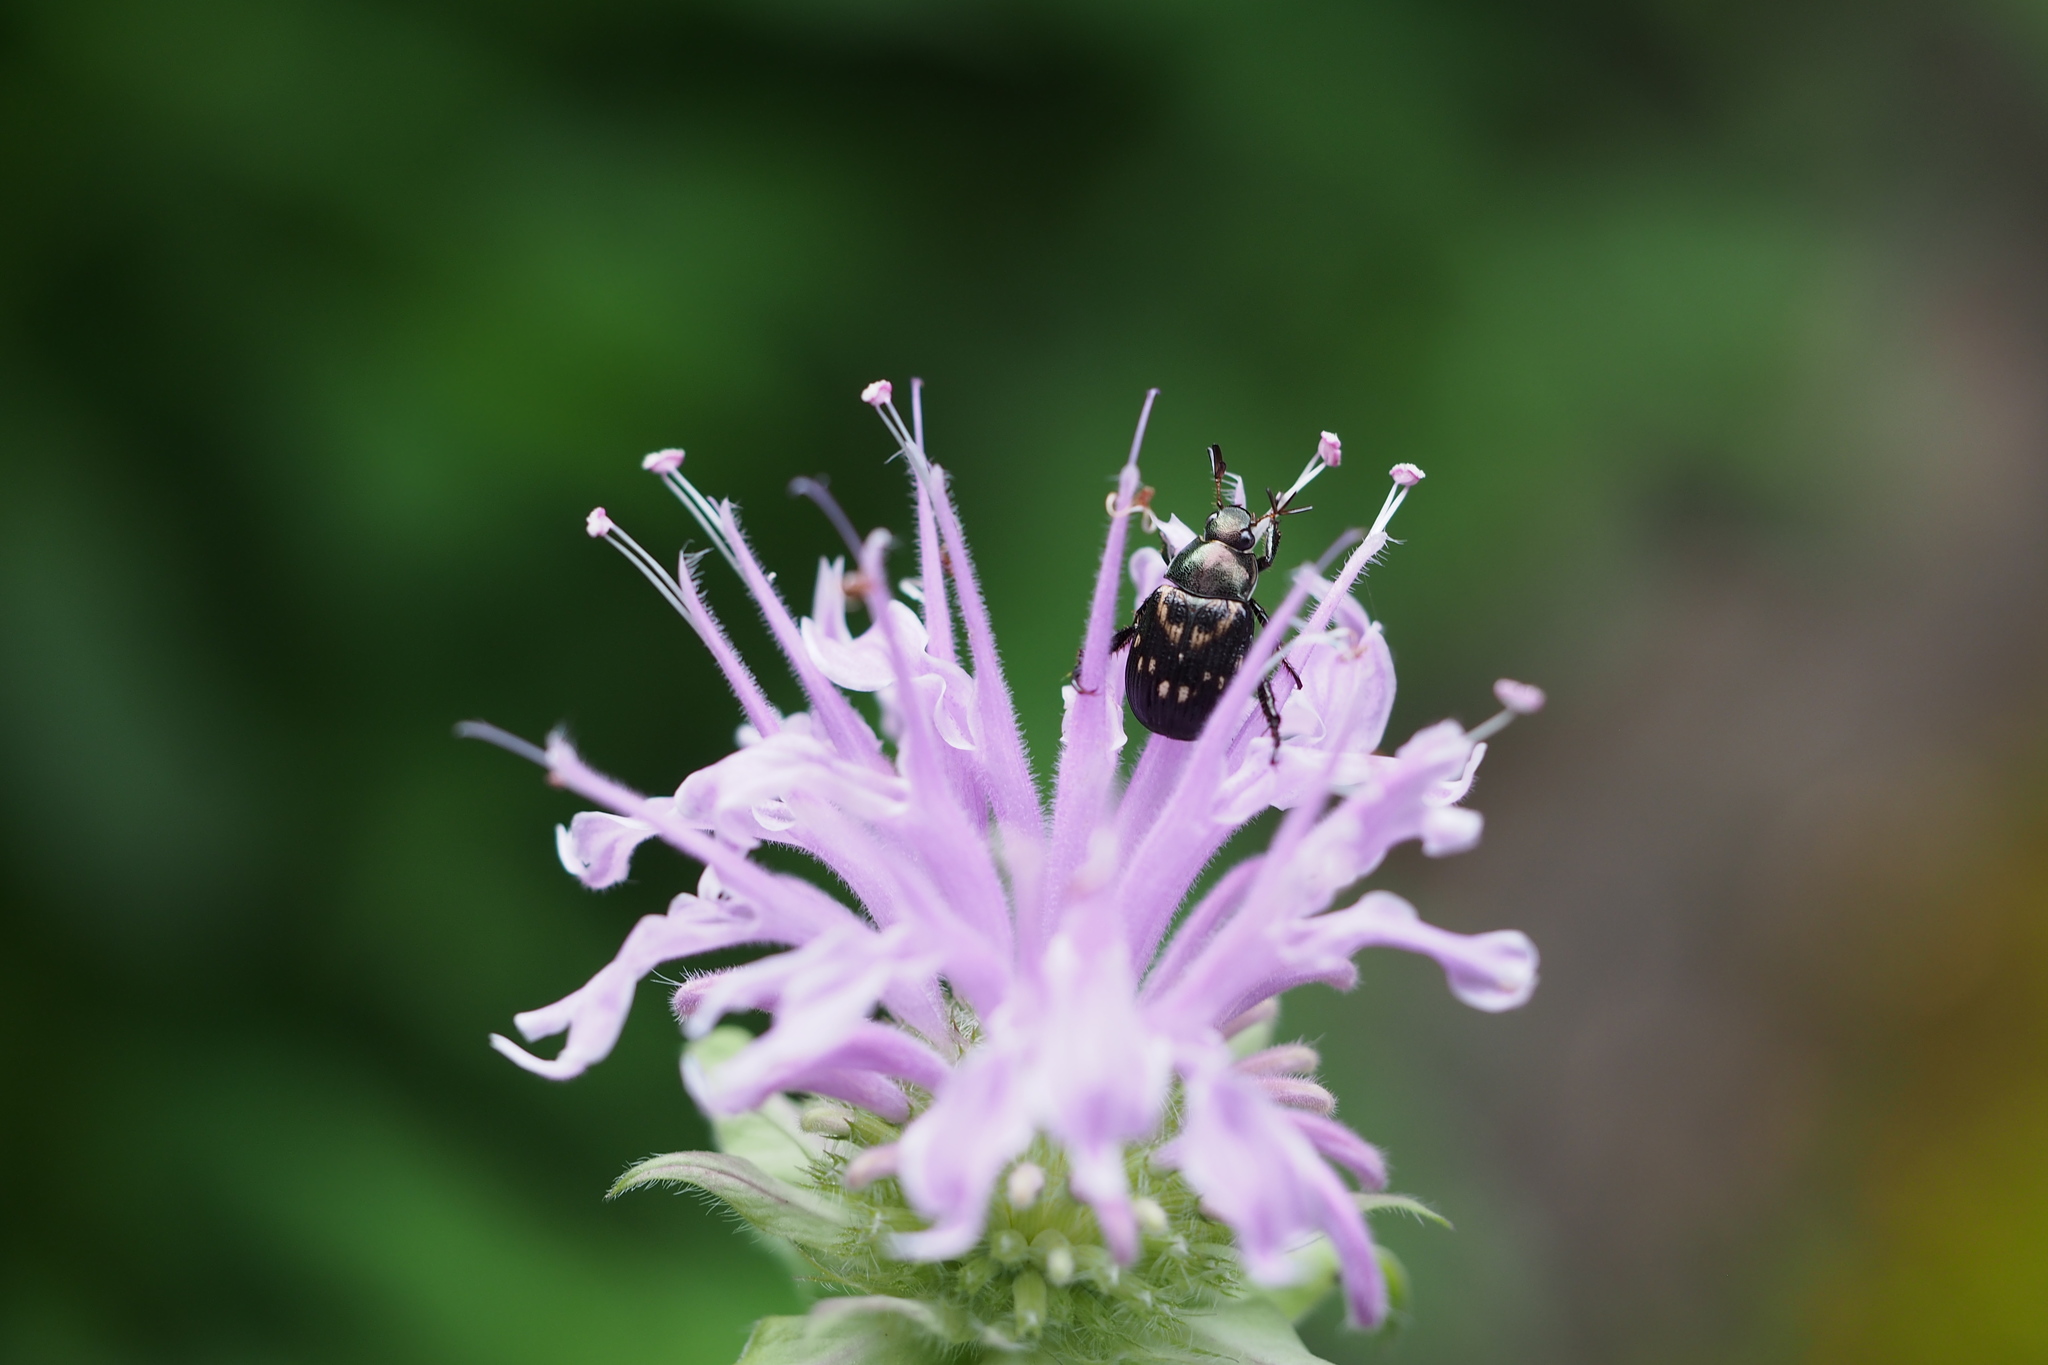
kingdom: Animalia
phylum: Arthropoda
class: Insecta
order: Coleoptera
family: Scarabaeidae
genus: Exomala
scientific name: Exomala orientalis
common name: Oriental beetle
